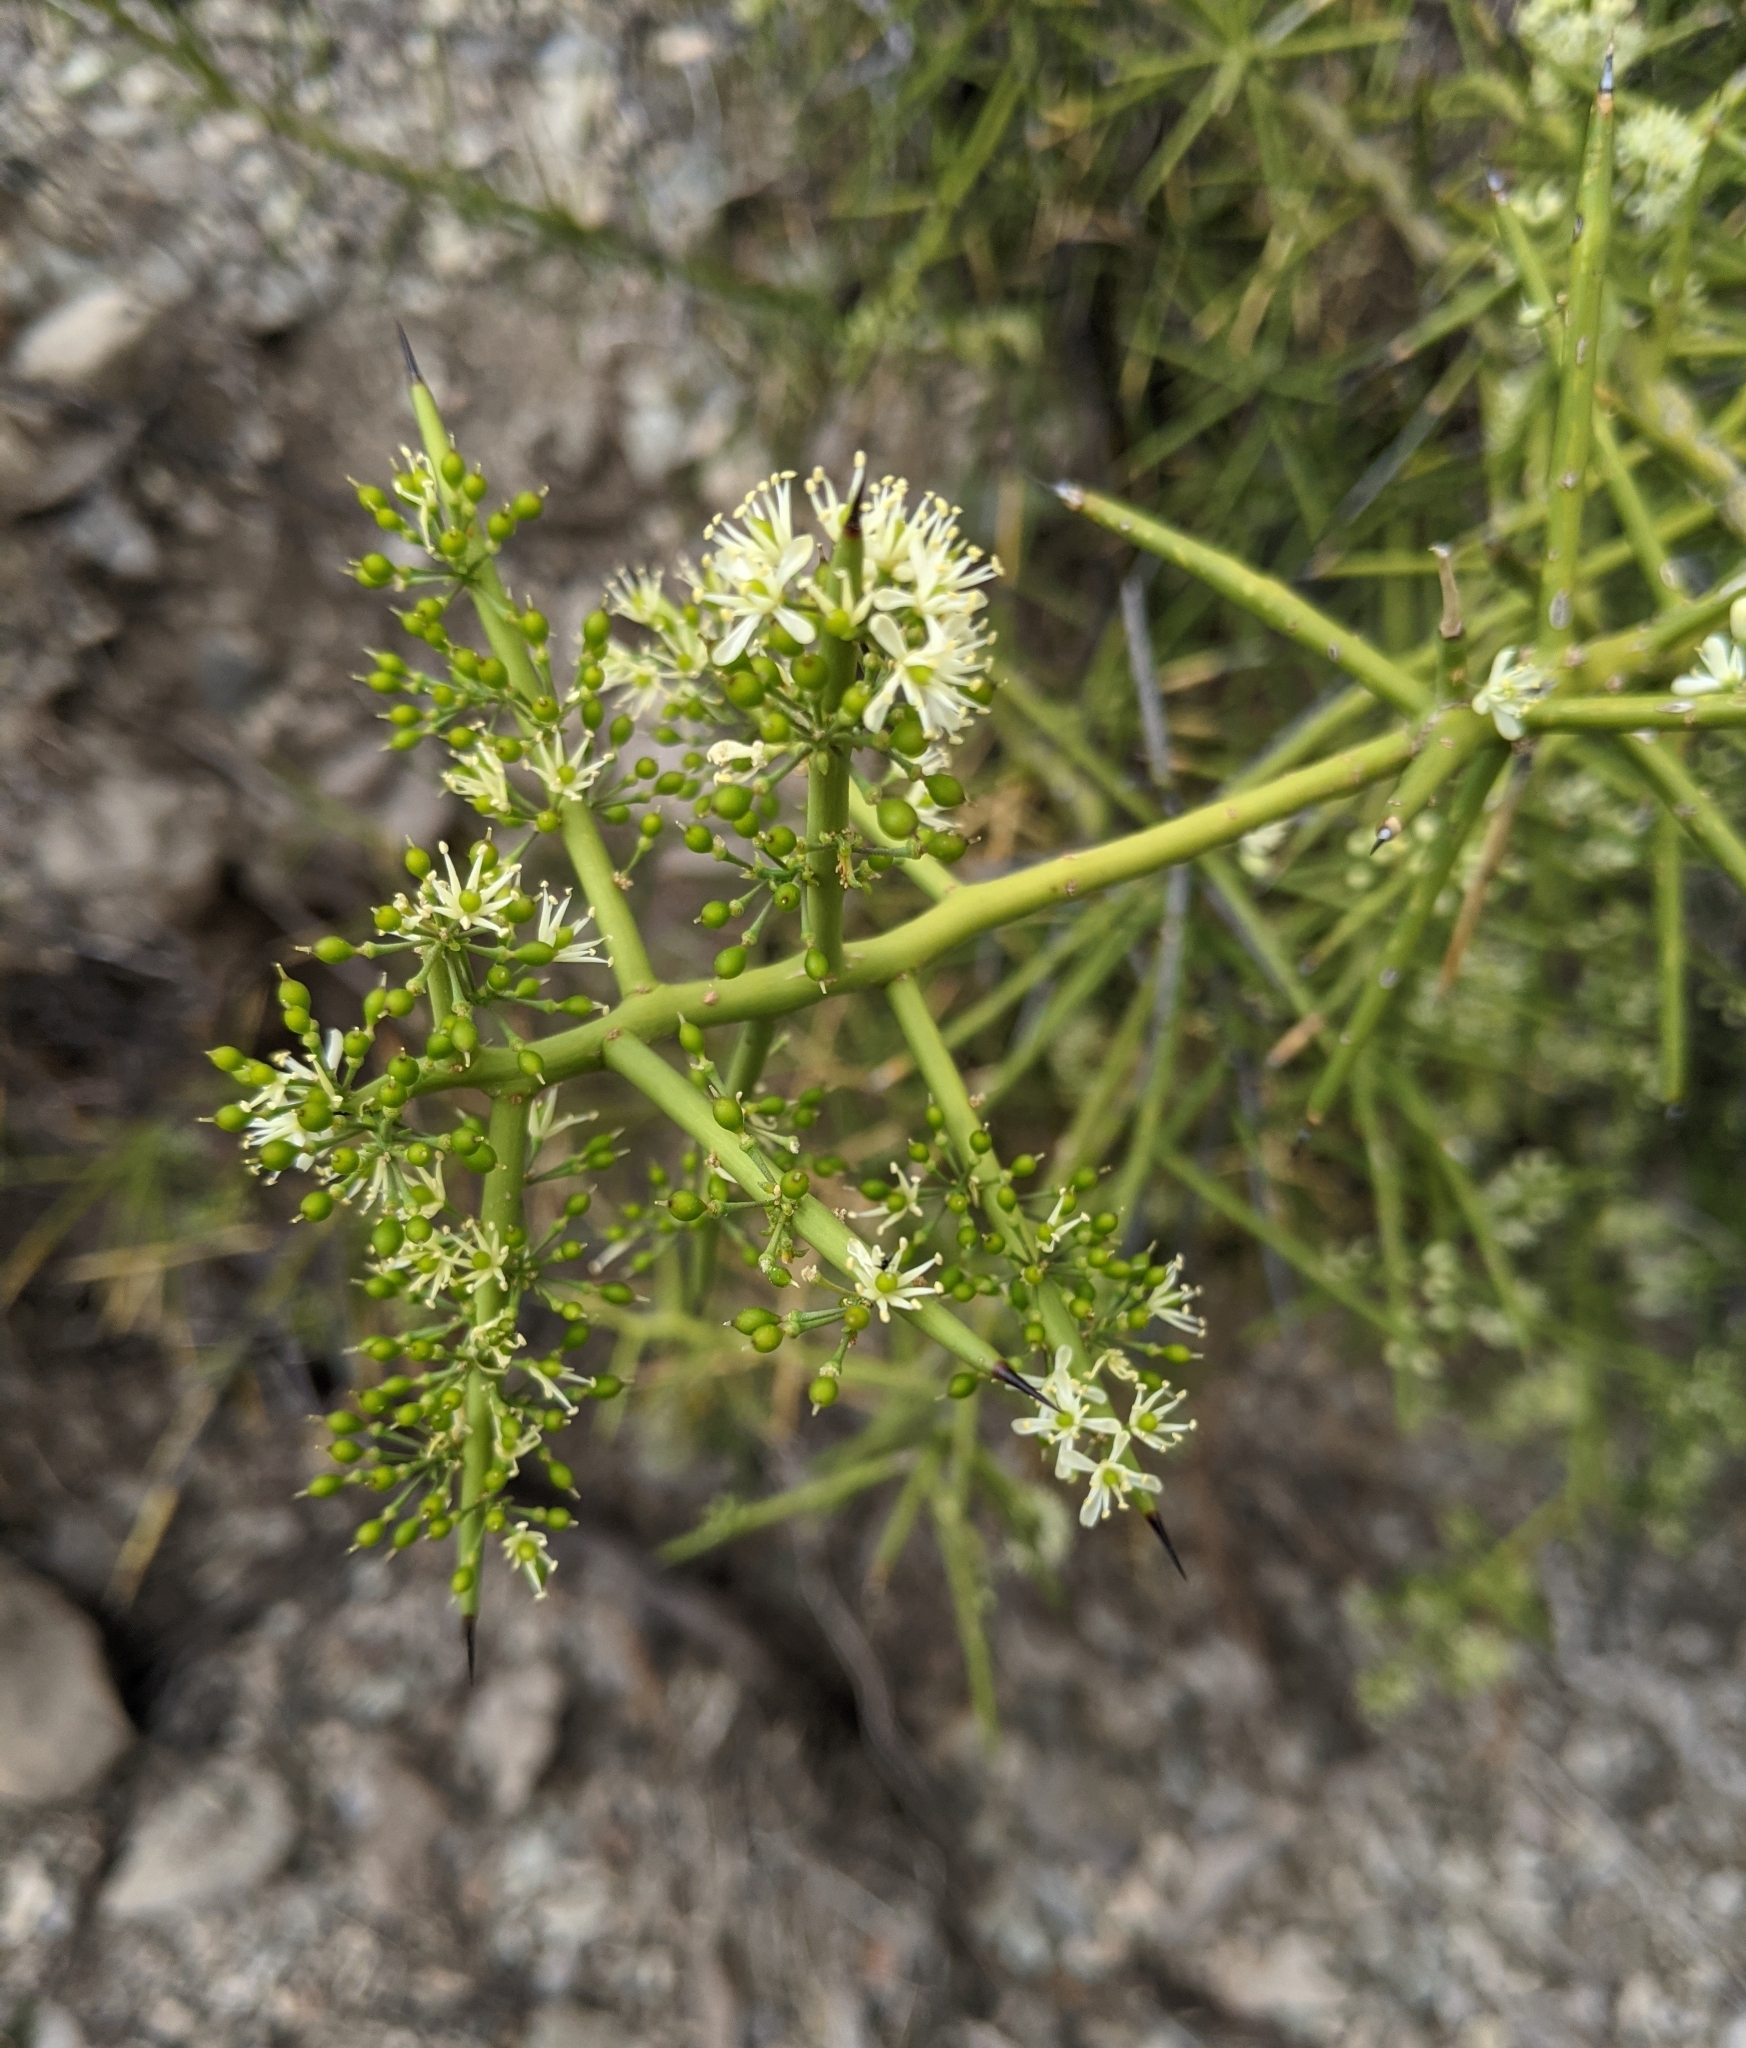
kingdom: Plantae
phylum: Tracheophyta
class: Magnoliopsida
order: Brassicales
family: Koeberliniaceae
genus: Koeberlinia
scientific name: Koeberlinia spinosa
